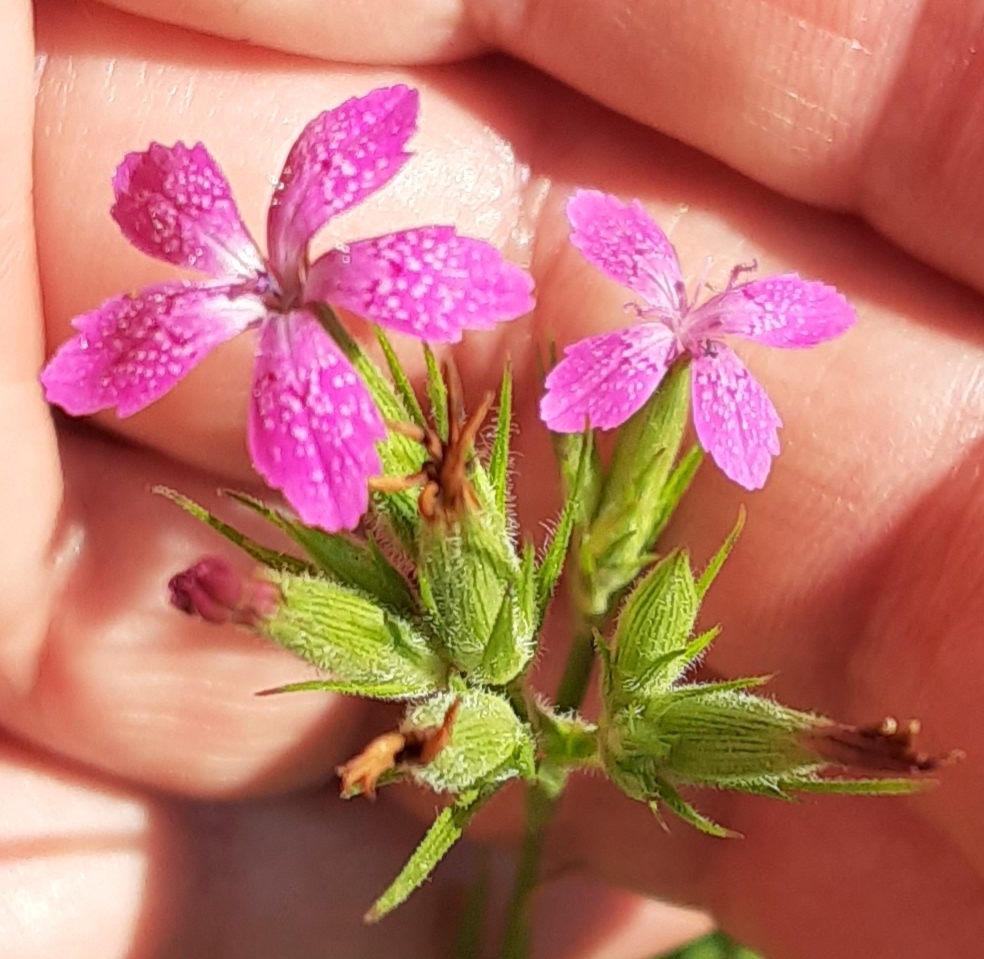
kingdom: Plantae
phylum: Tracheophyta
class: Magnoliopsida
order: Caryophyllales
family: Caryophyllaceae
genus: Dianthus
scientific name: Dianthus armeria
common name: Deptford pink
